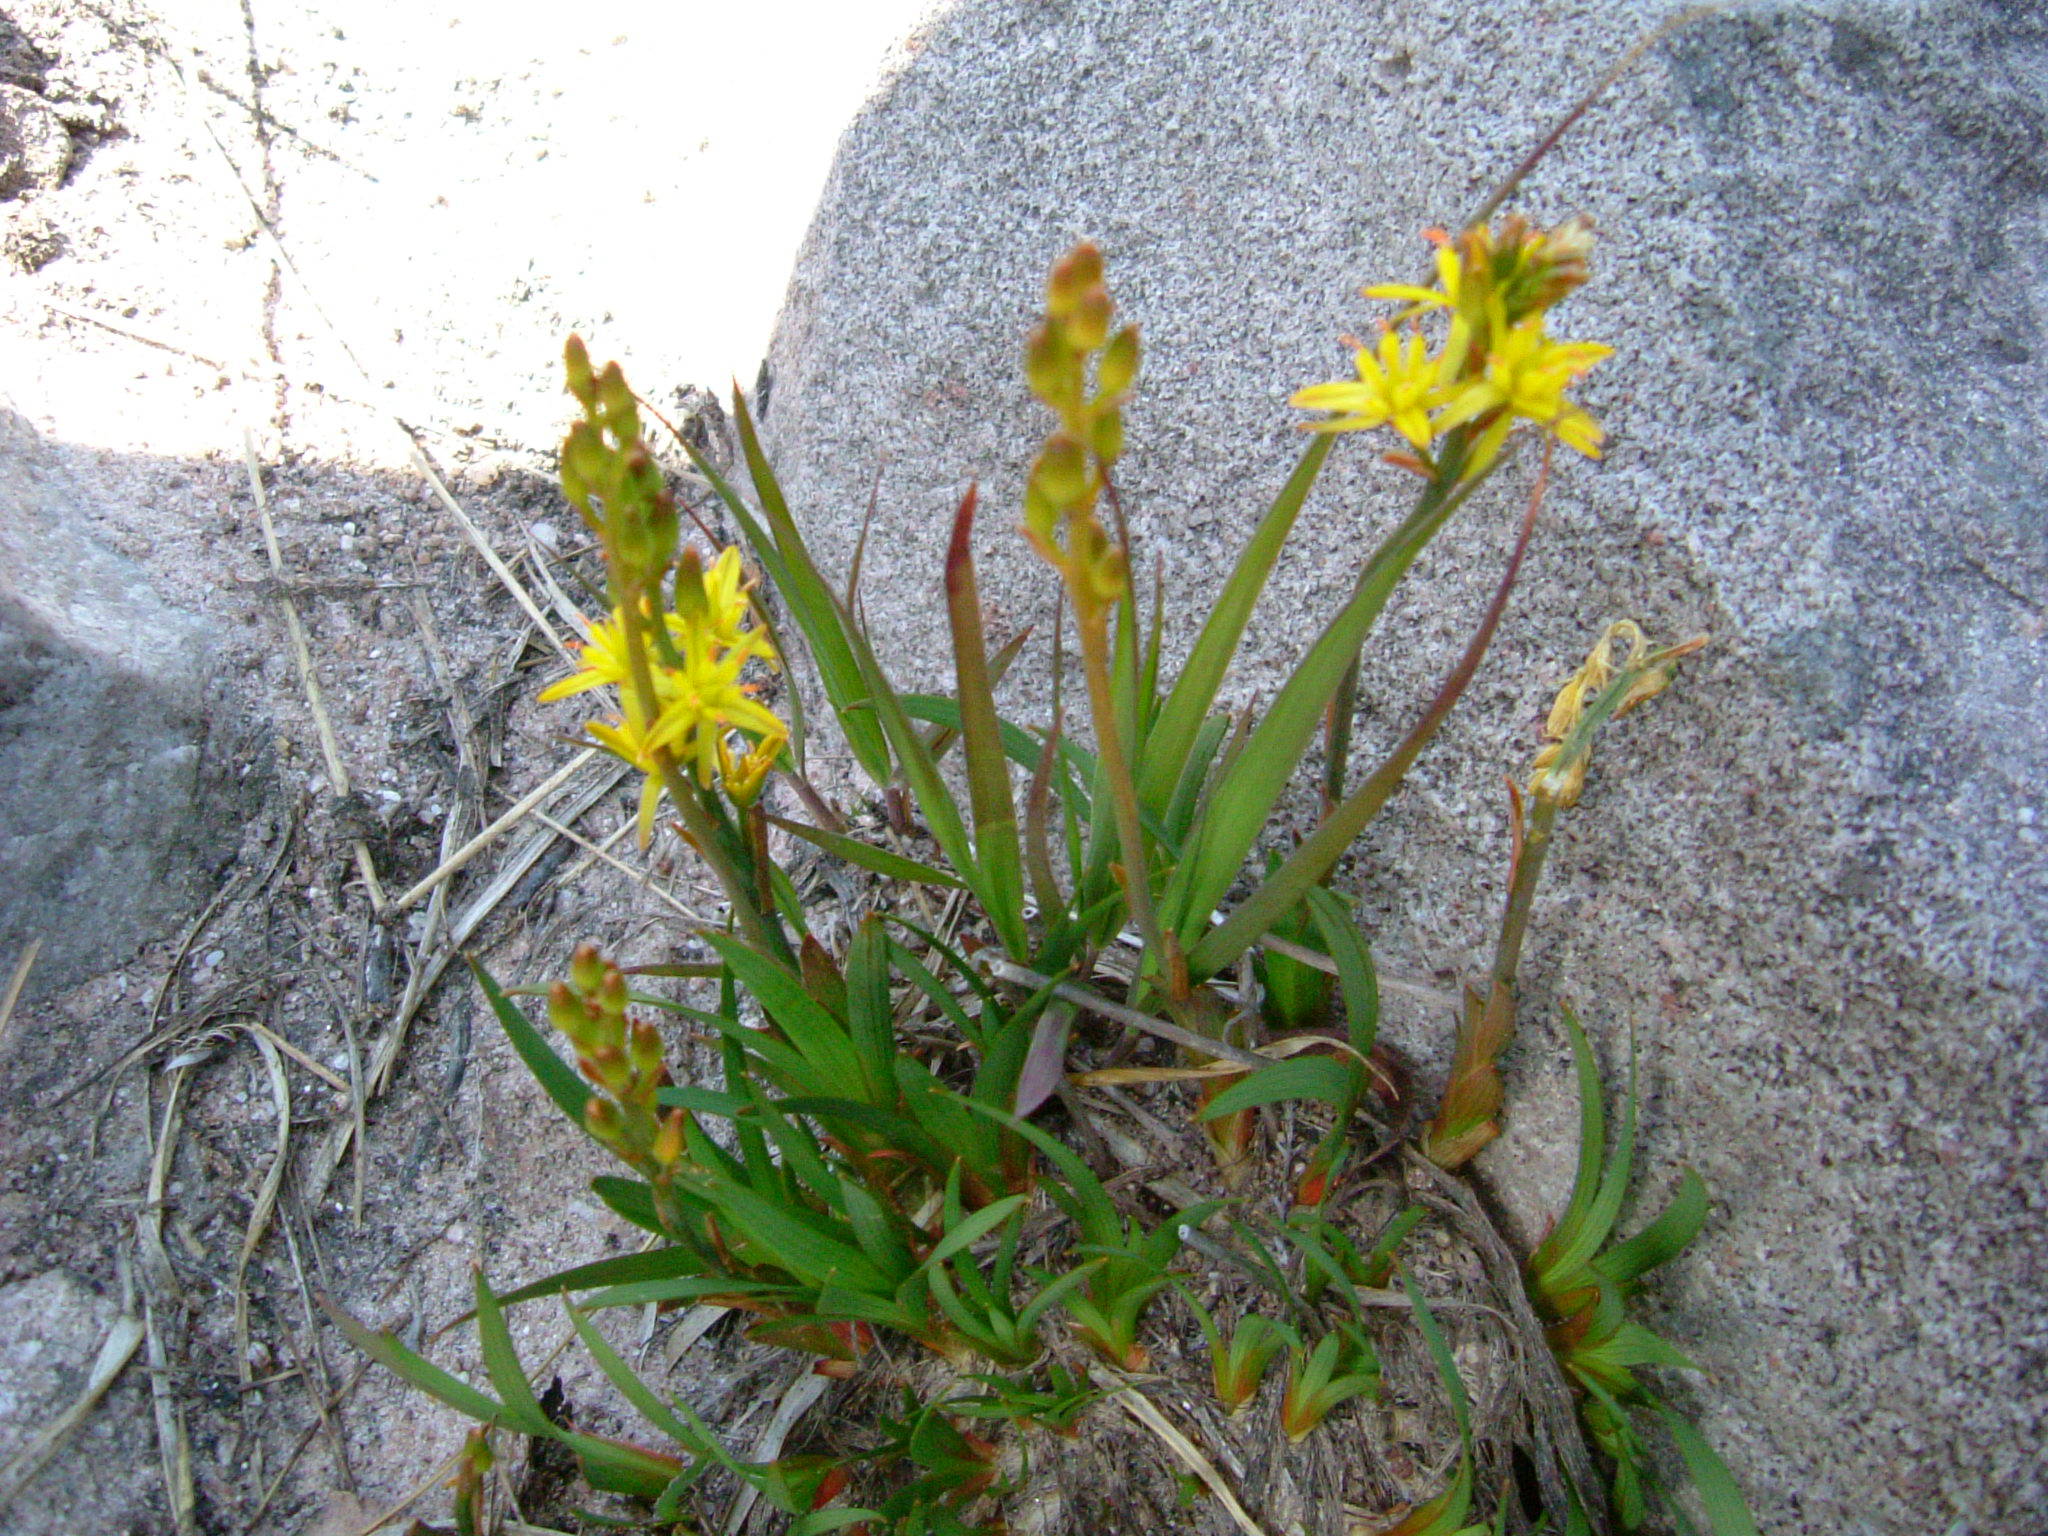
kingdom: Plantae
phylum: Tracheophyta
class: Liliopsida
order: Dioscoreales
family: Nartheciaceae
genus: Narthecium
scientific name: Narthecium ossifragum
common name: Bog asphodel
